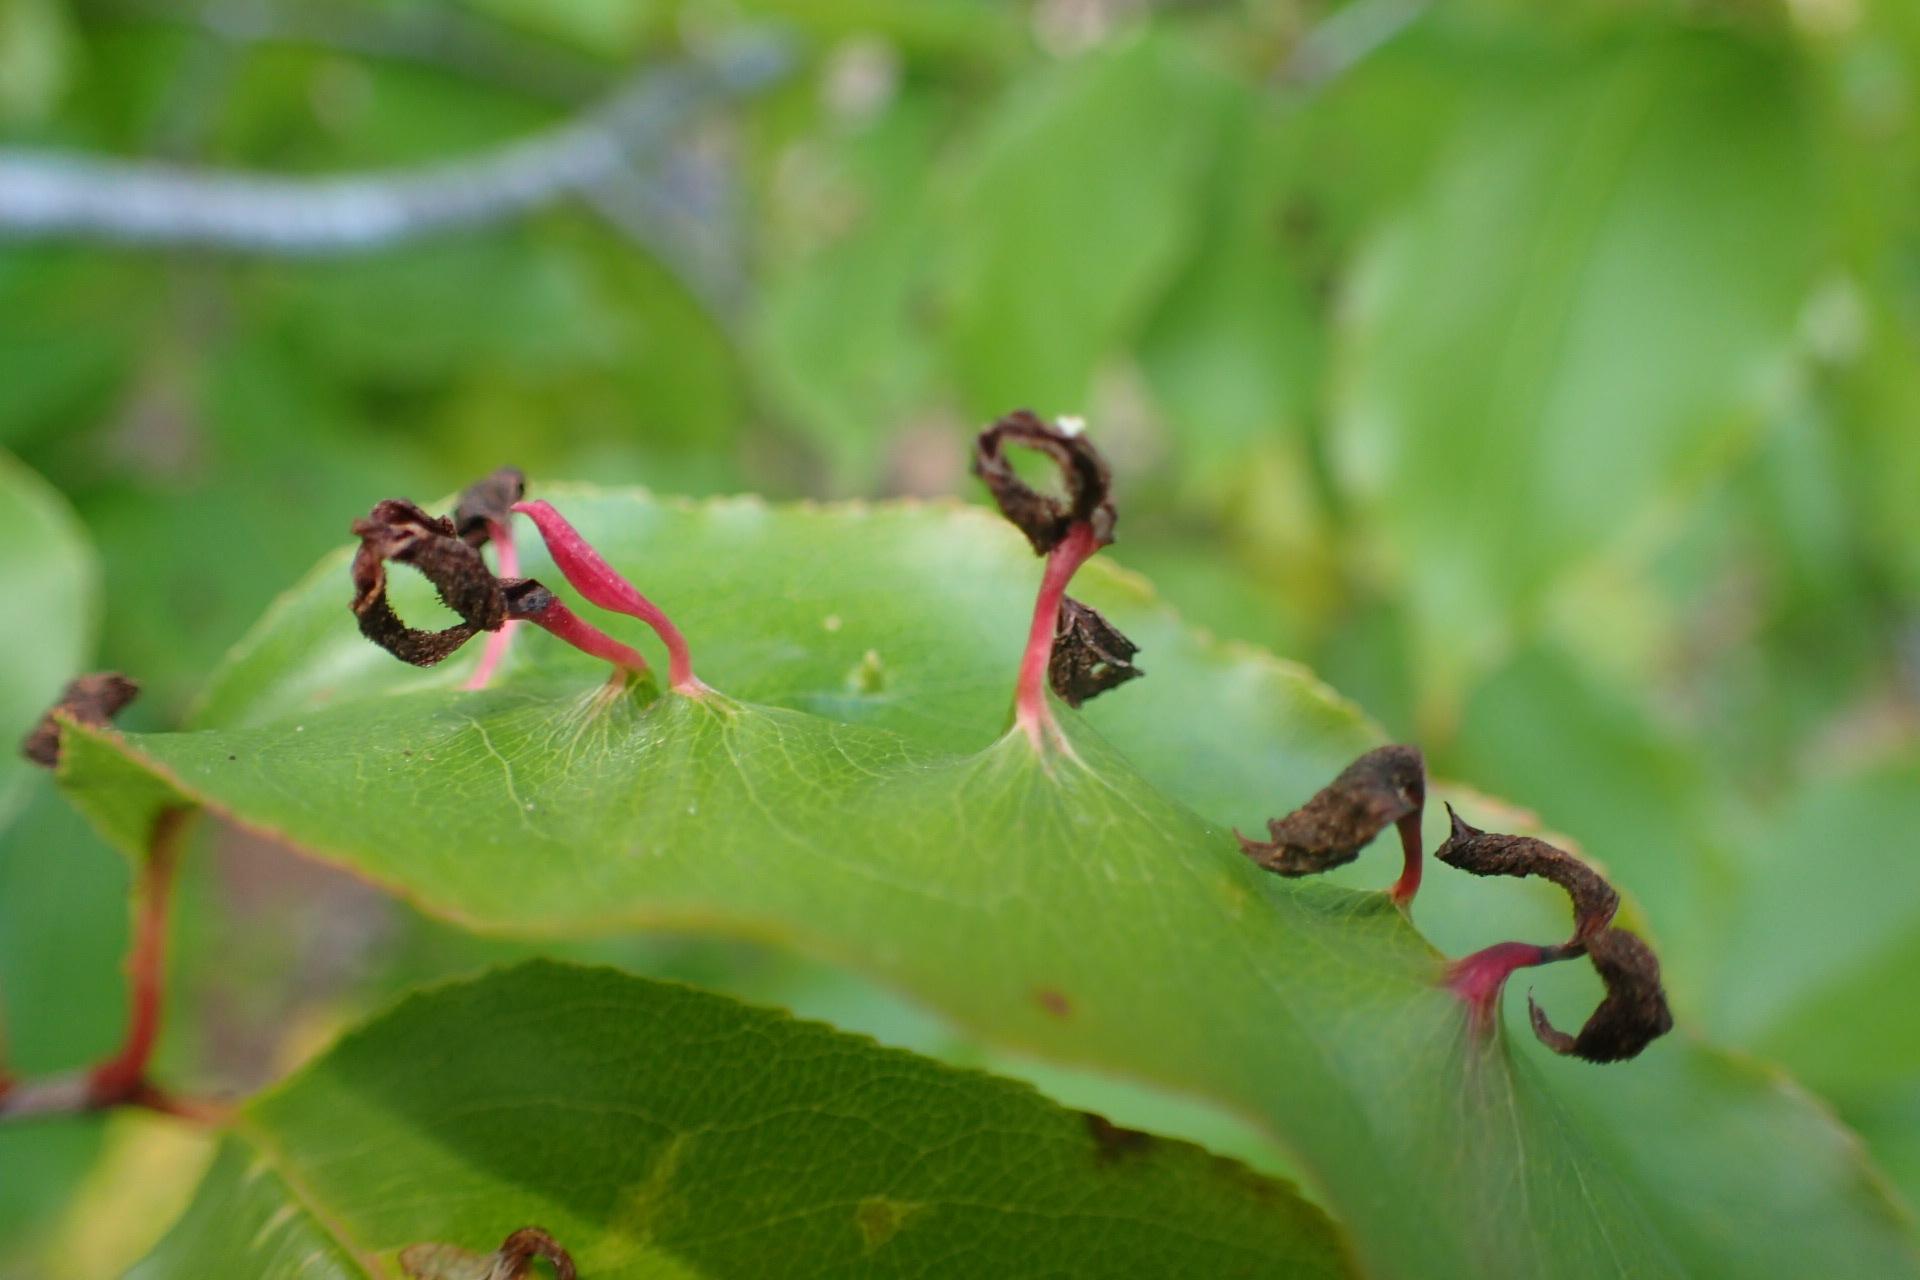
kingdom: Animalia
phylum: Arthropoda
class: Arachnida
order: Trombidiformes
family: Eriophyidae
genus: Eriophyes
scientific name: Eriophyes
